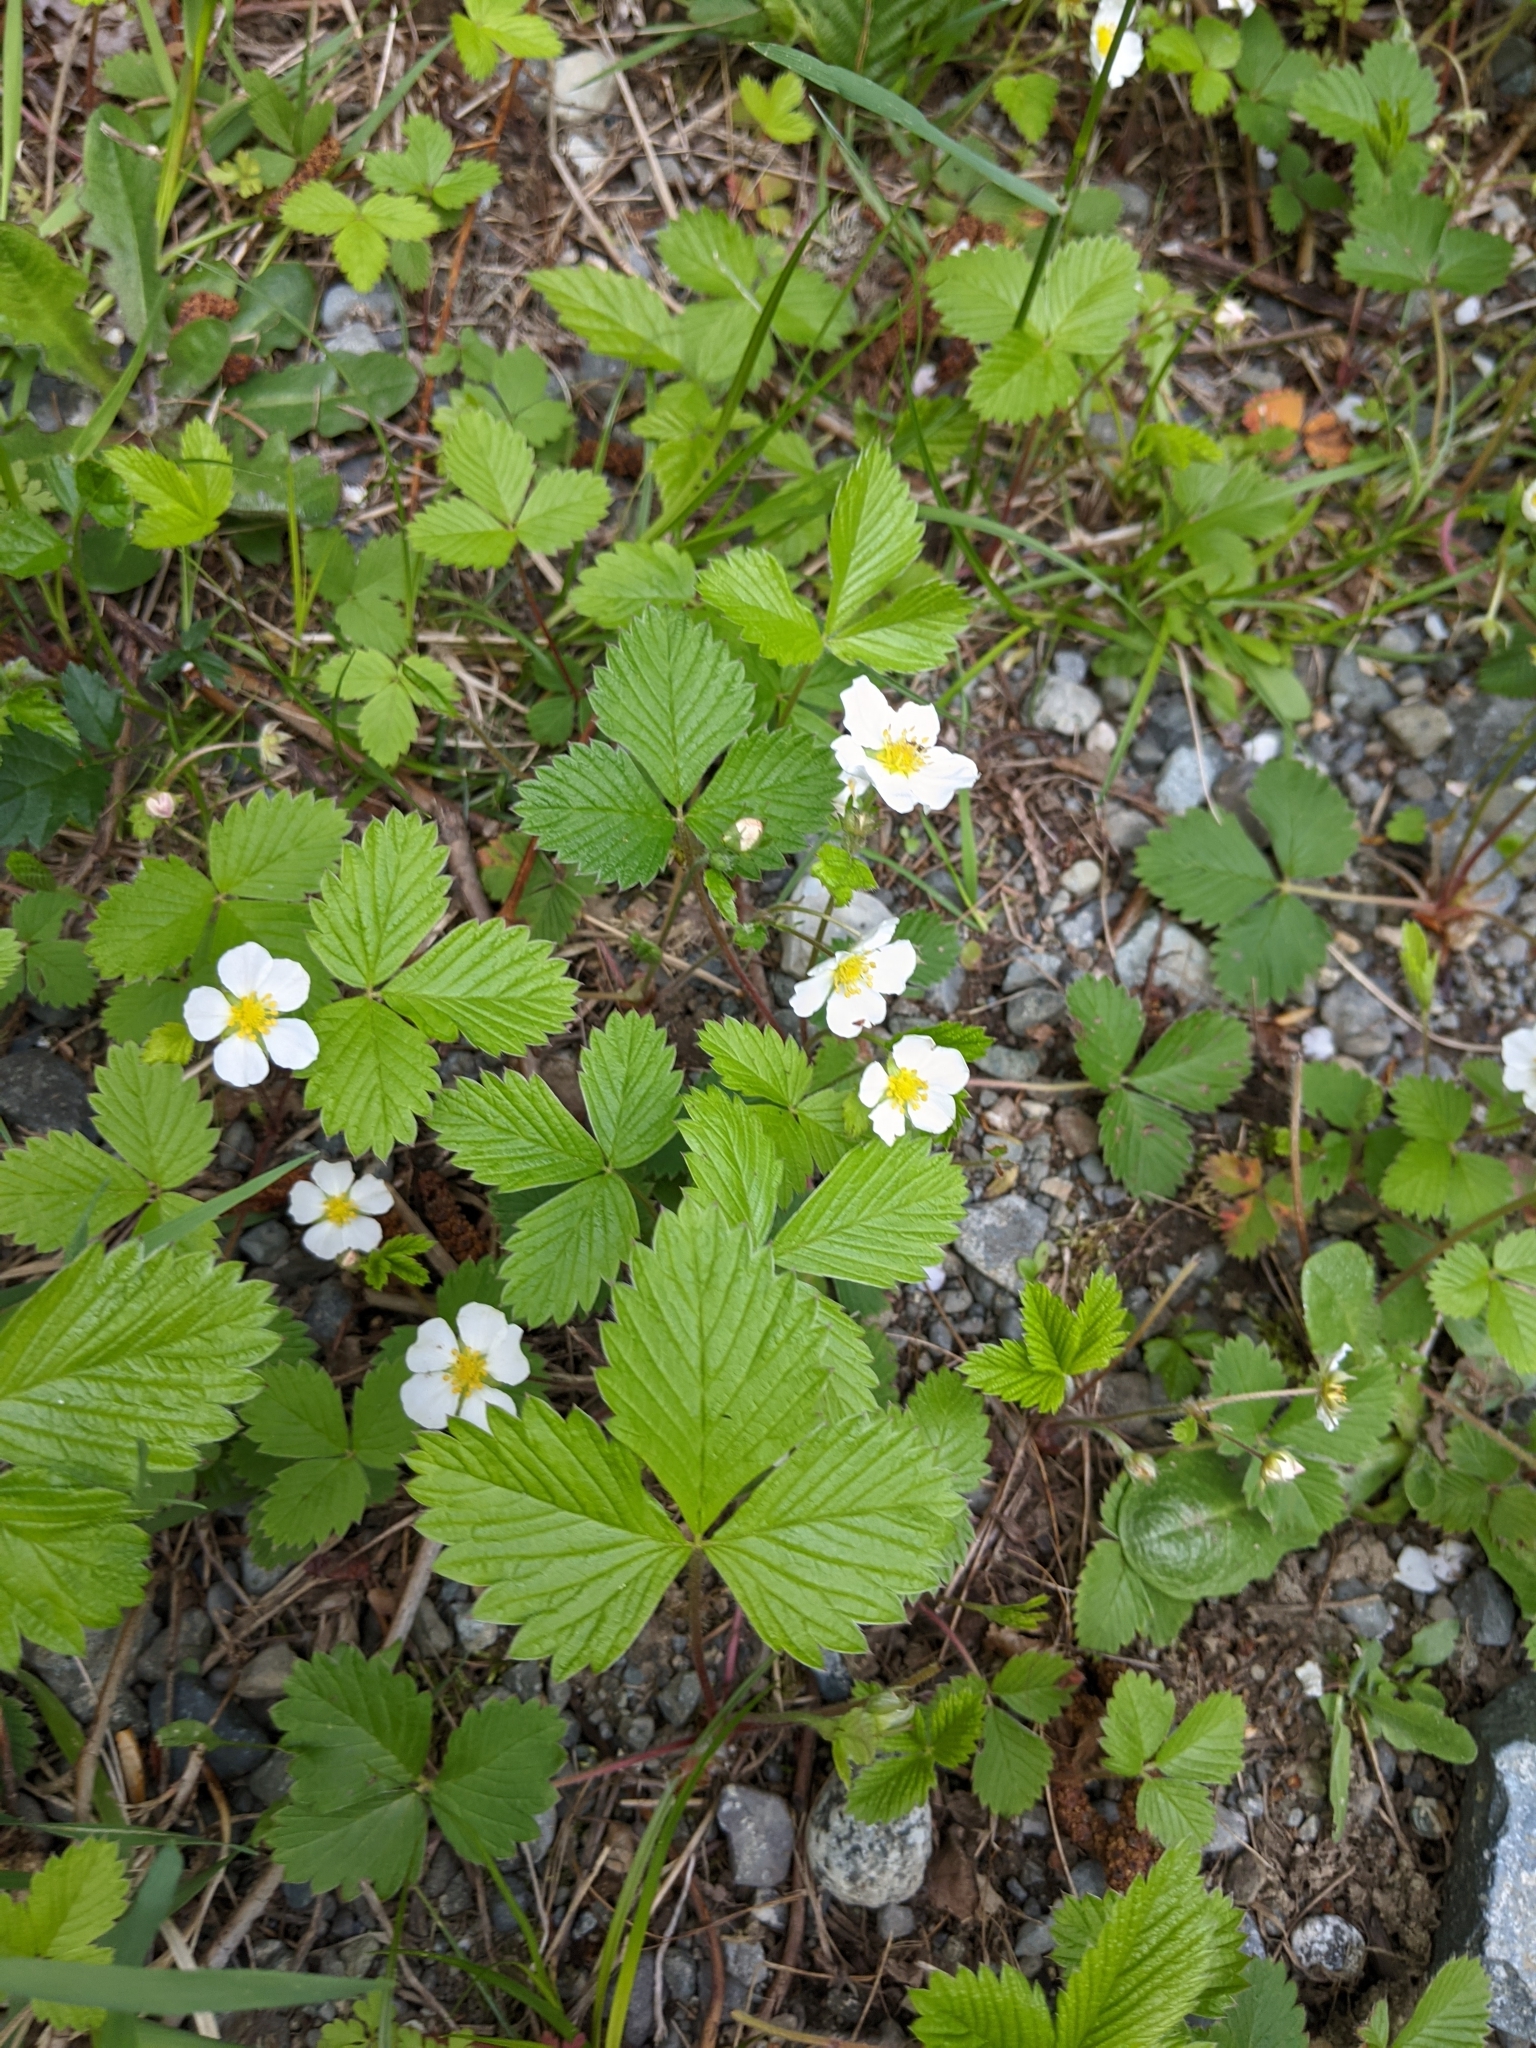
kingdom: Plantae
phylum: Tracheophyta
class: Magnoliopsida
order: Rosales
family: Rosaceae
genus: Fragaria
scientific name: Fragaria vesca
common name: Wild strawberry
